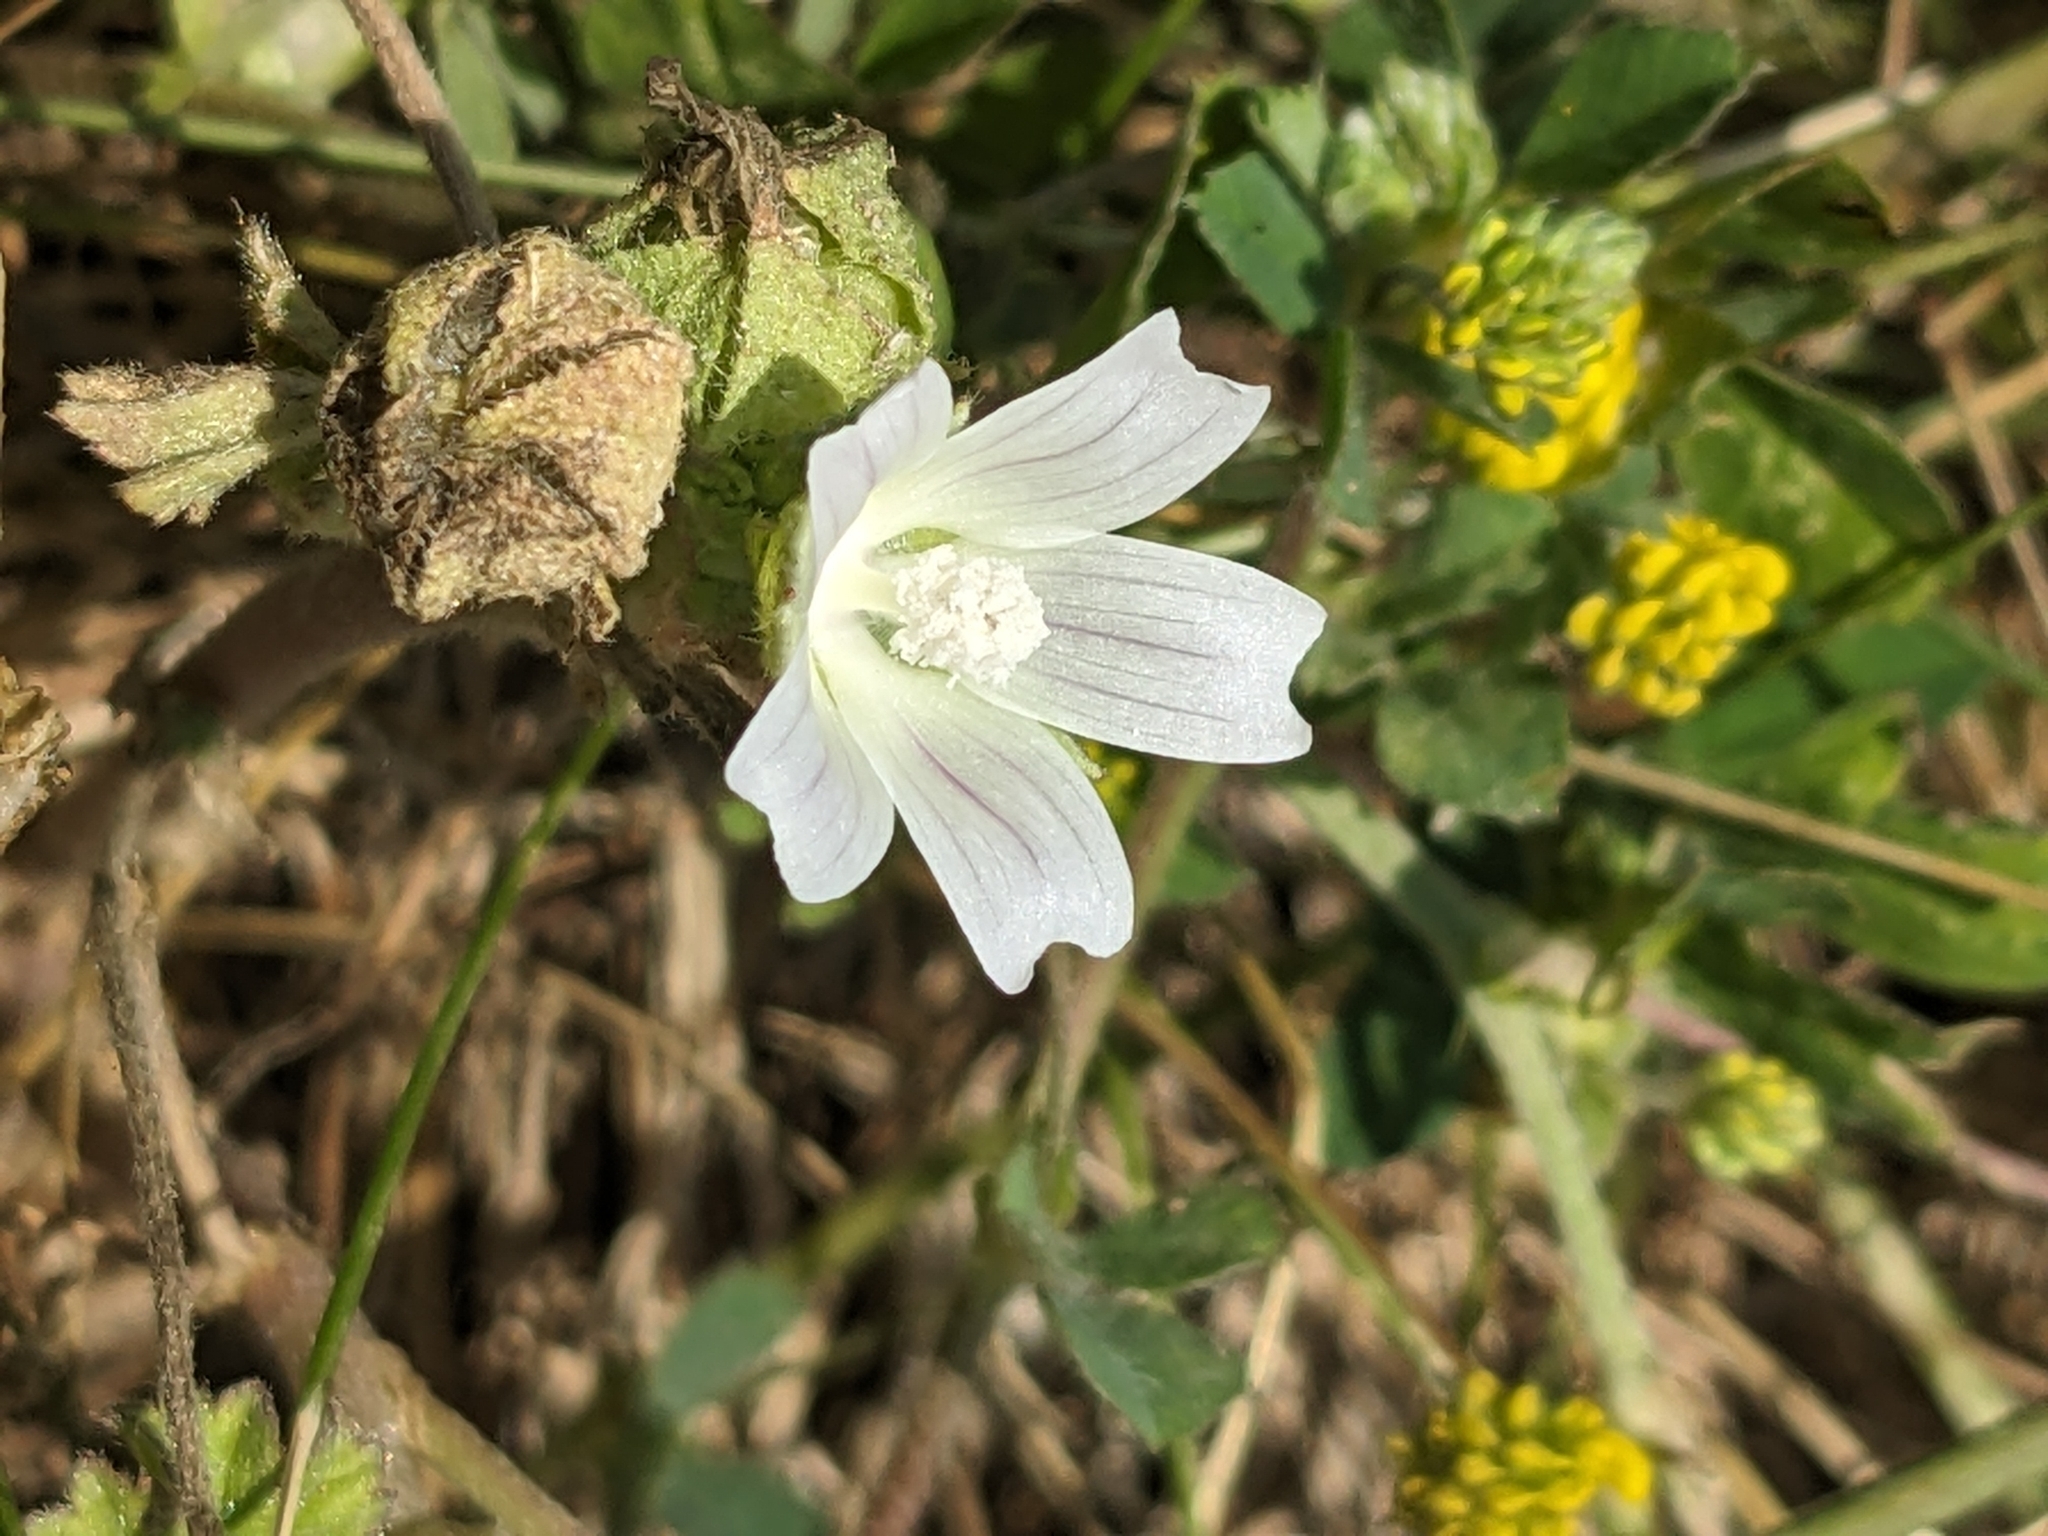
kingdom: Plantae
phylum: Tracheophyta
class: Magnoliopsida
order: Malvales
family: Malvaceae
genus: Malva
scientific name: Malva neglecta
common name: Common mallow
